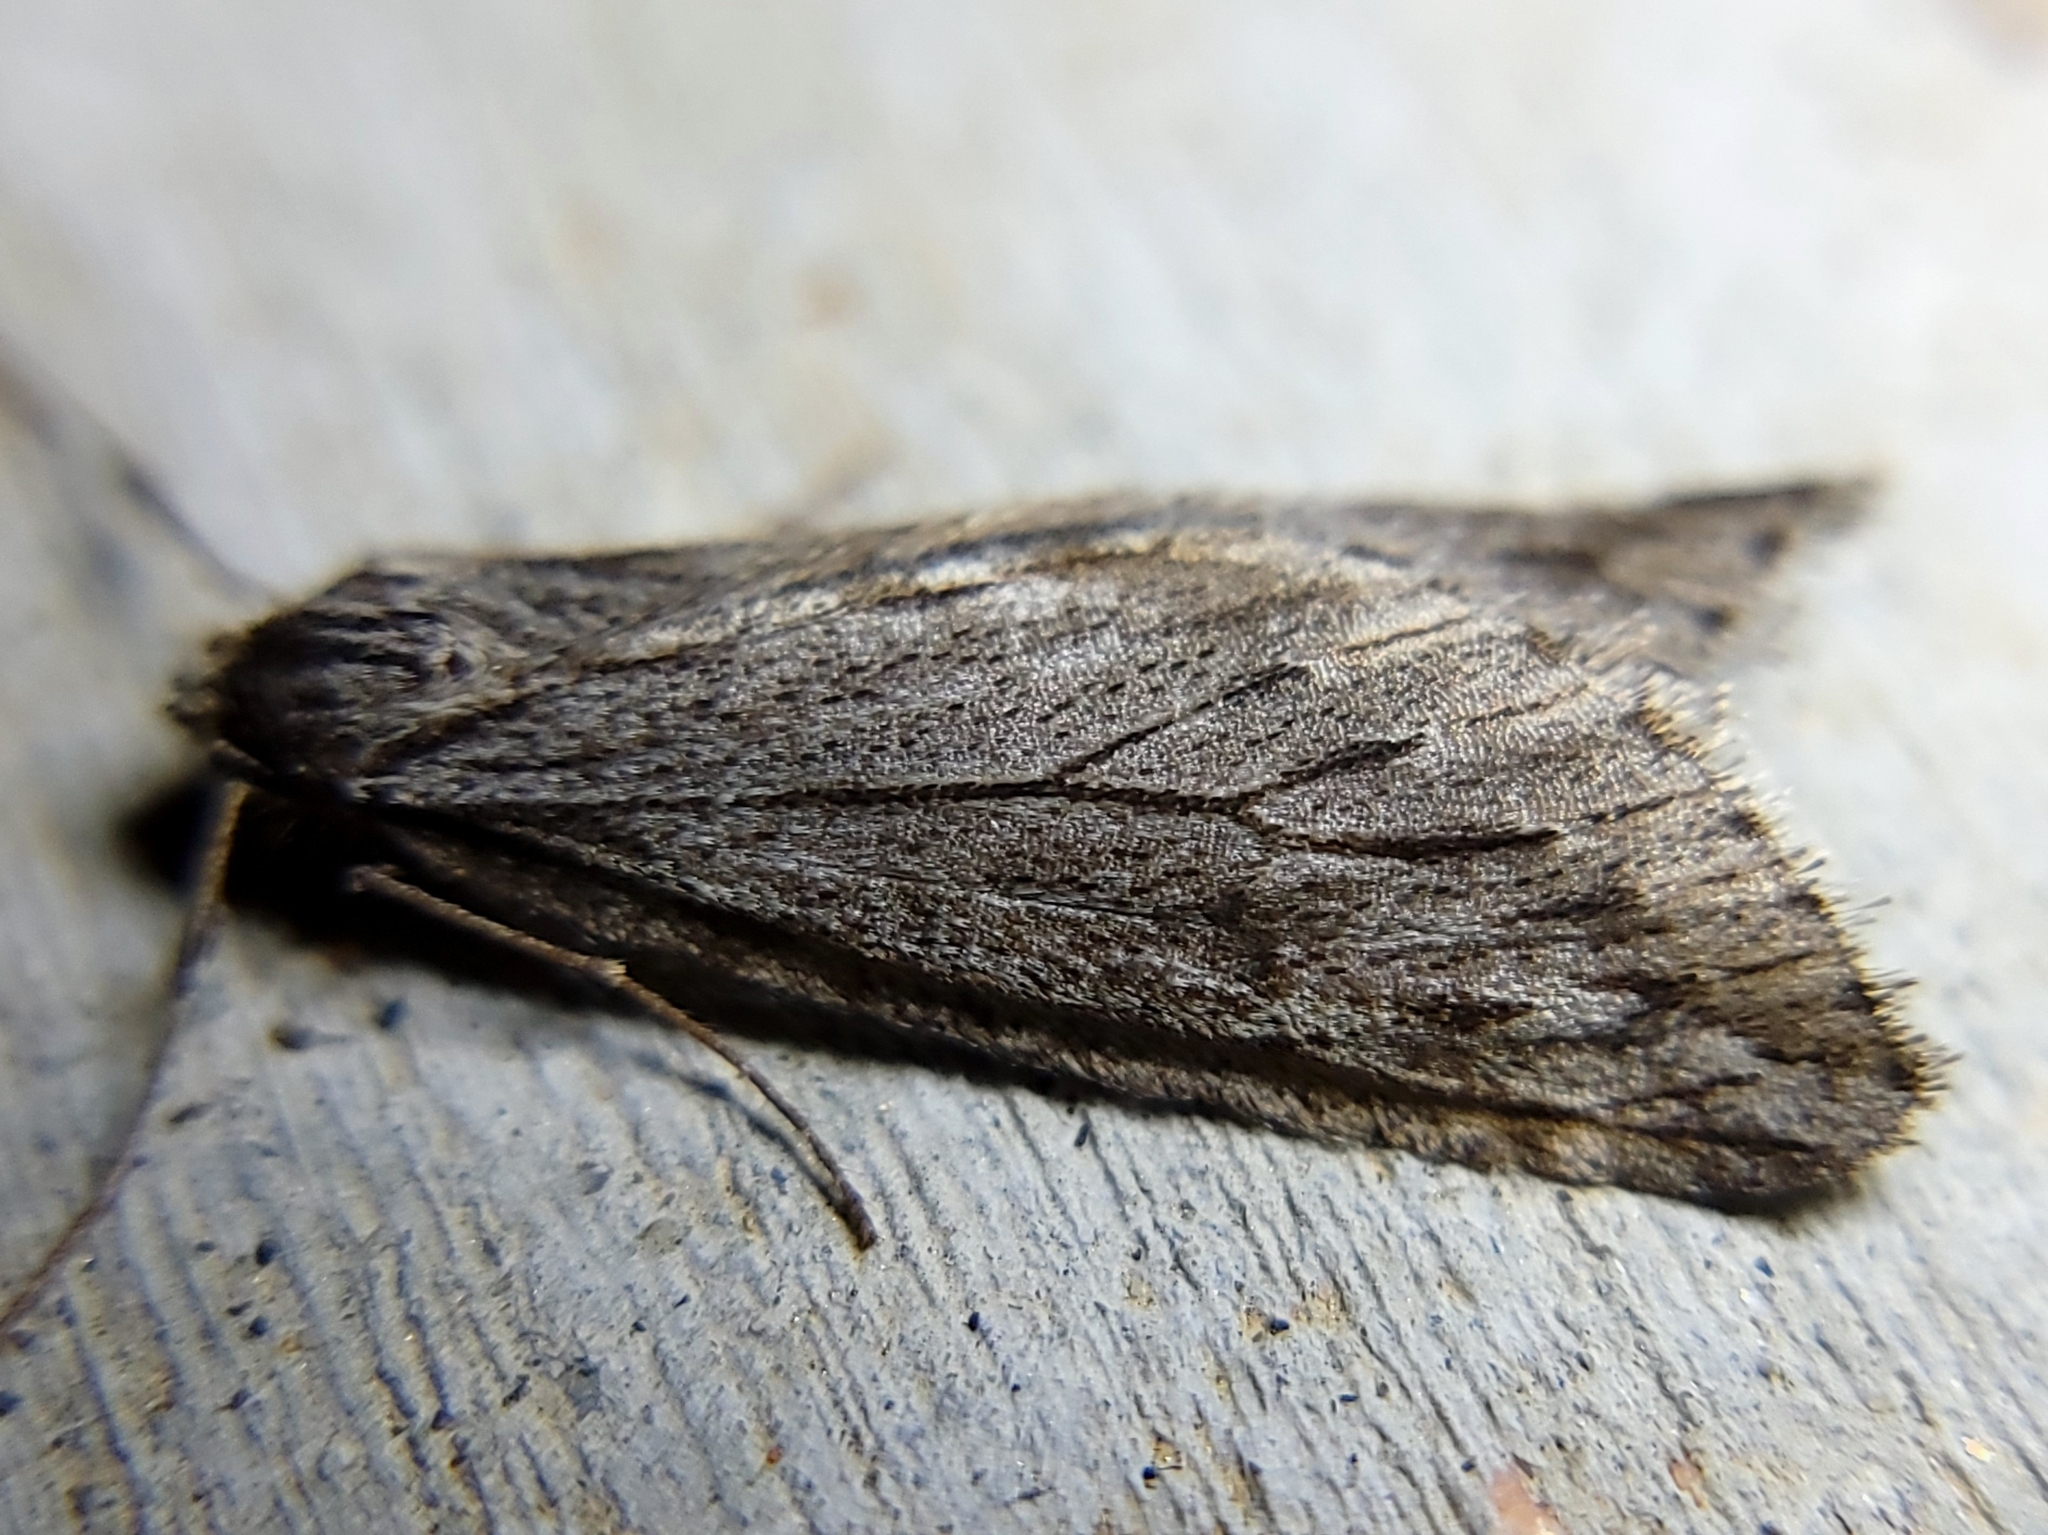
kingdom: Animalia
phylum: Arthropoda
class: Insecta
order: Lepidoptera
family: Geometridae
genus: Paleacrita
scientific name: Paleacrita longiciliata
